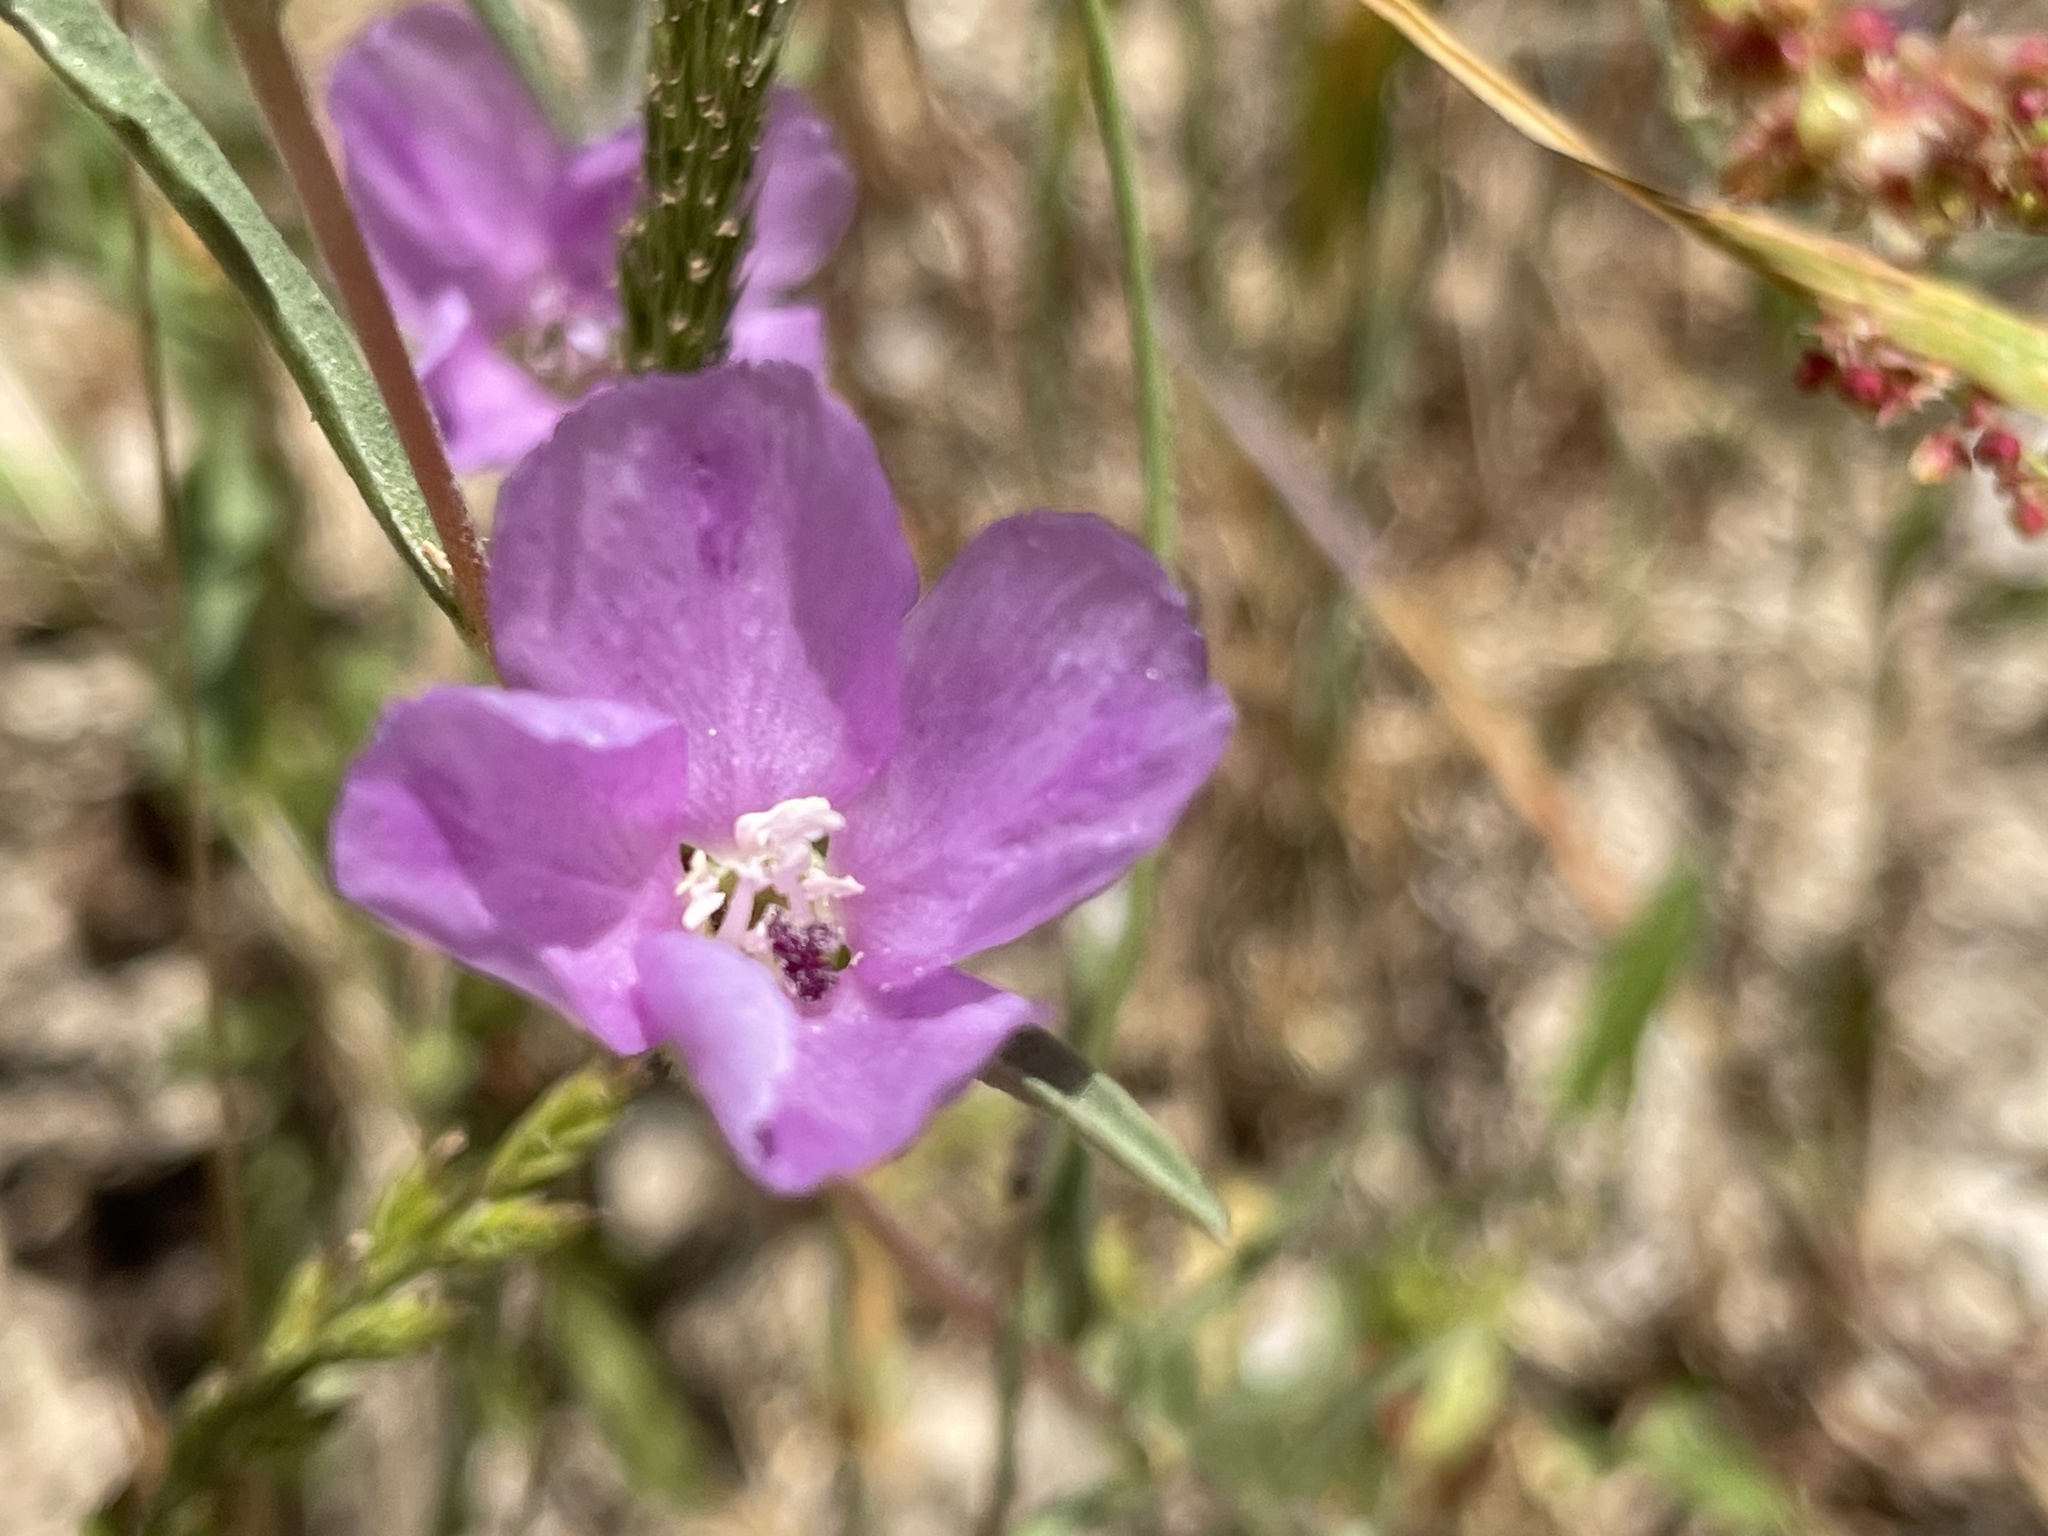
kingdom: Plantae
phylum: Tracheophyta
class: Magnoliopsida
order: Myrtales
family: Onagraceae
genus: Clarkia
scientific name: Clarkia purpurea
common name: Purple clarkia
